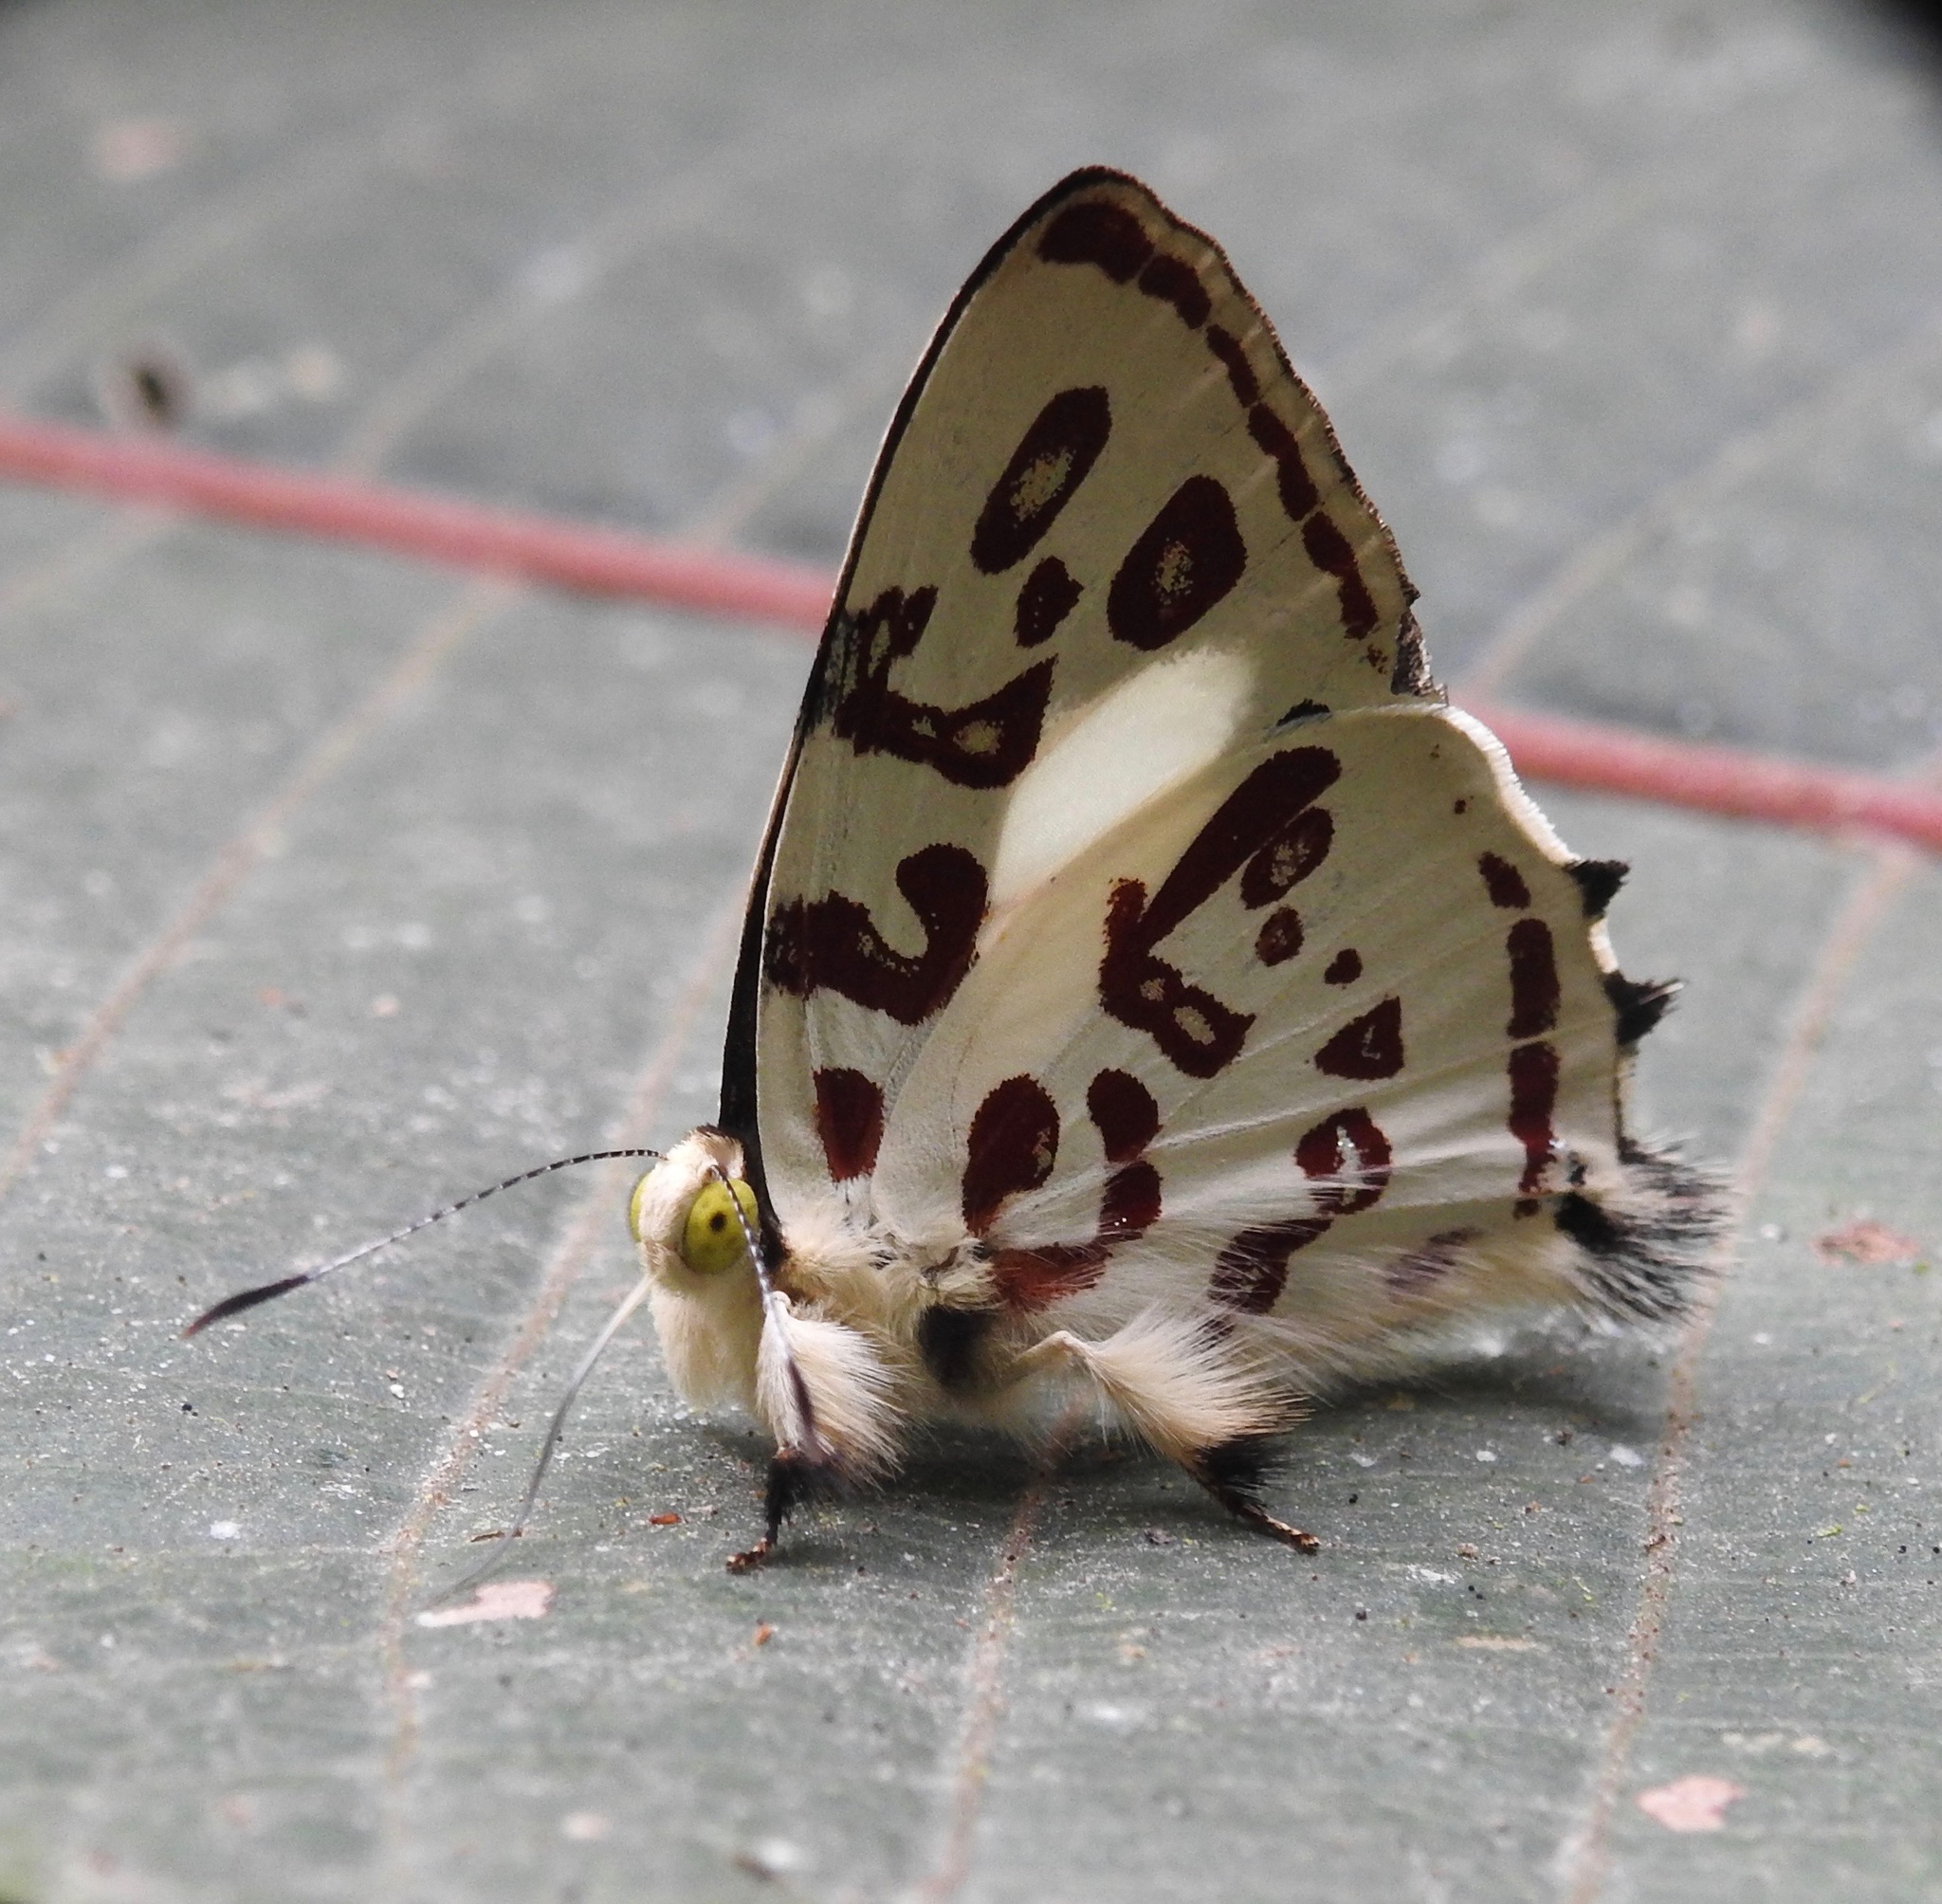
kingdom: Animalia
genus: Anteros
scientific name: Anteros kupris
